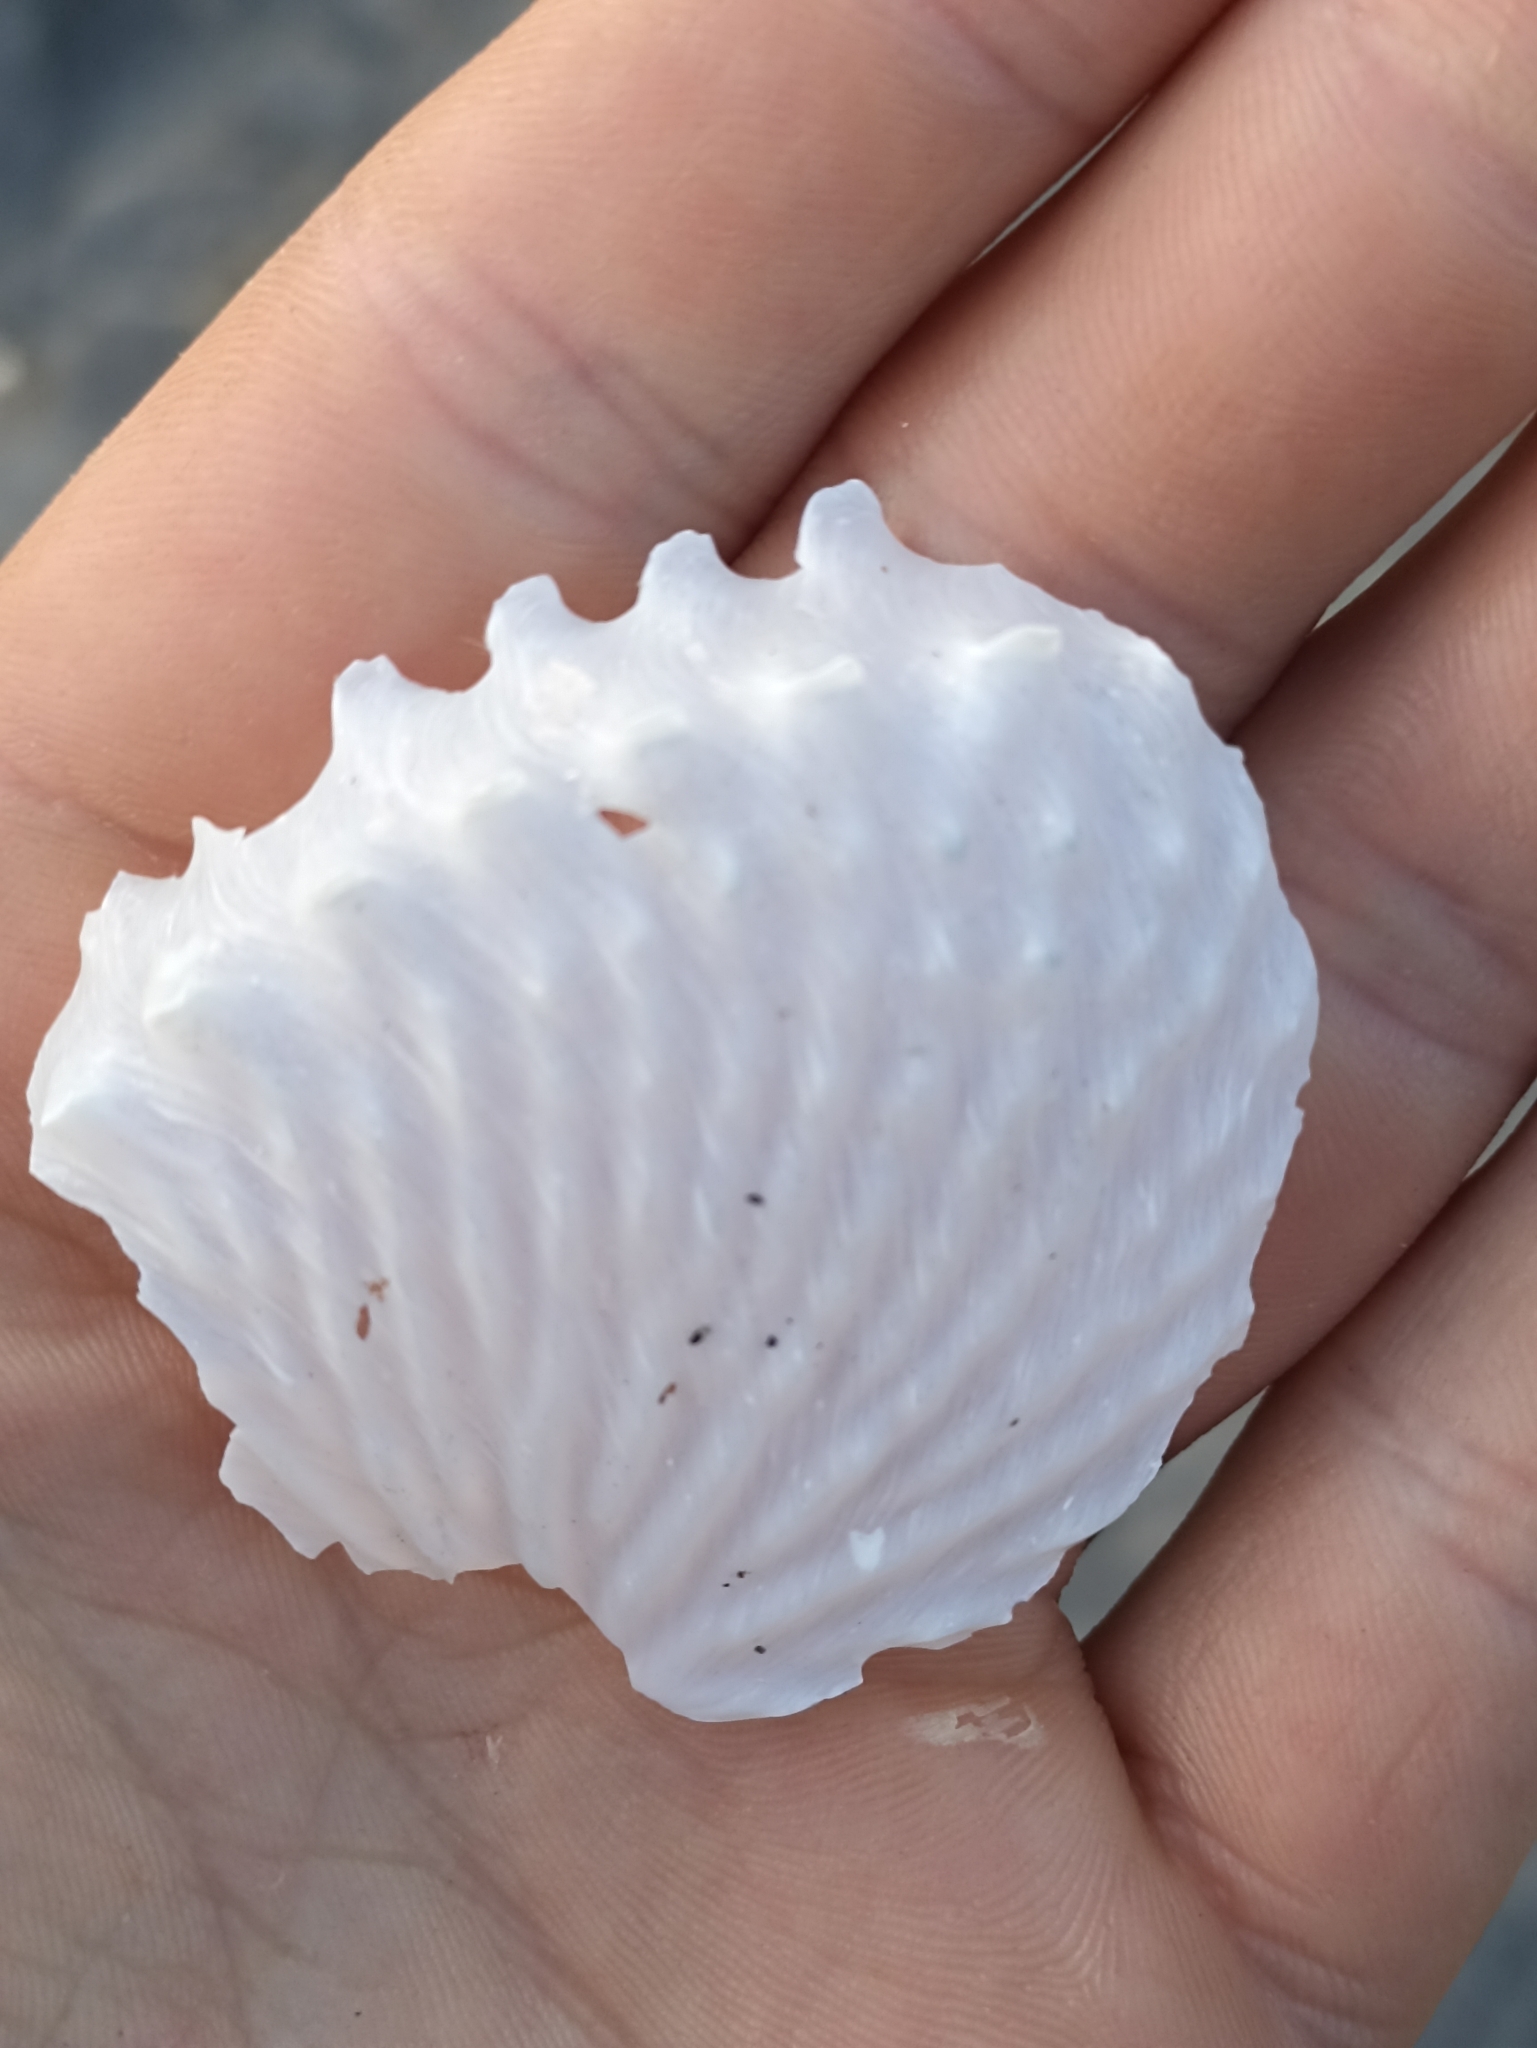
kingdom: Animalia
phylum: Mollusca
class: Cephalopoda
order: Octopoda
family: Argonautidae
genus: Argonauta
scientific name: Argonauta nodosus
